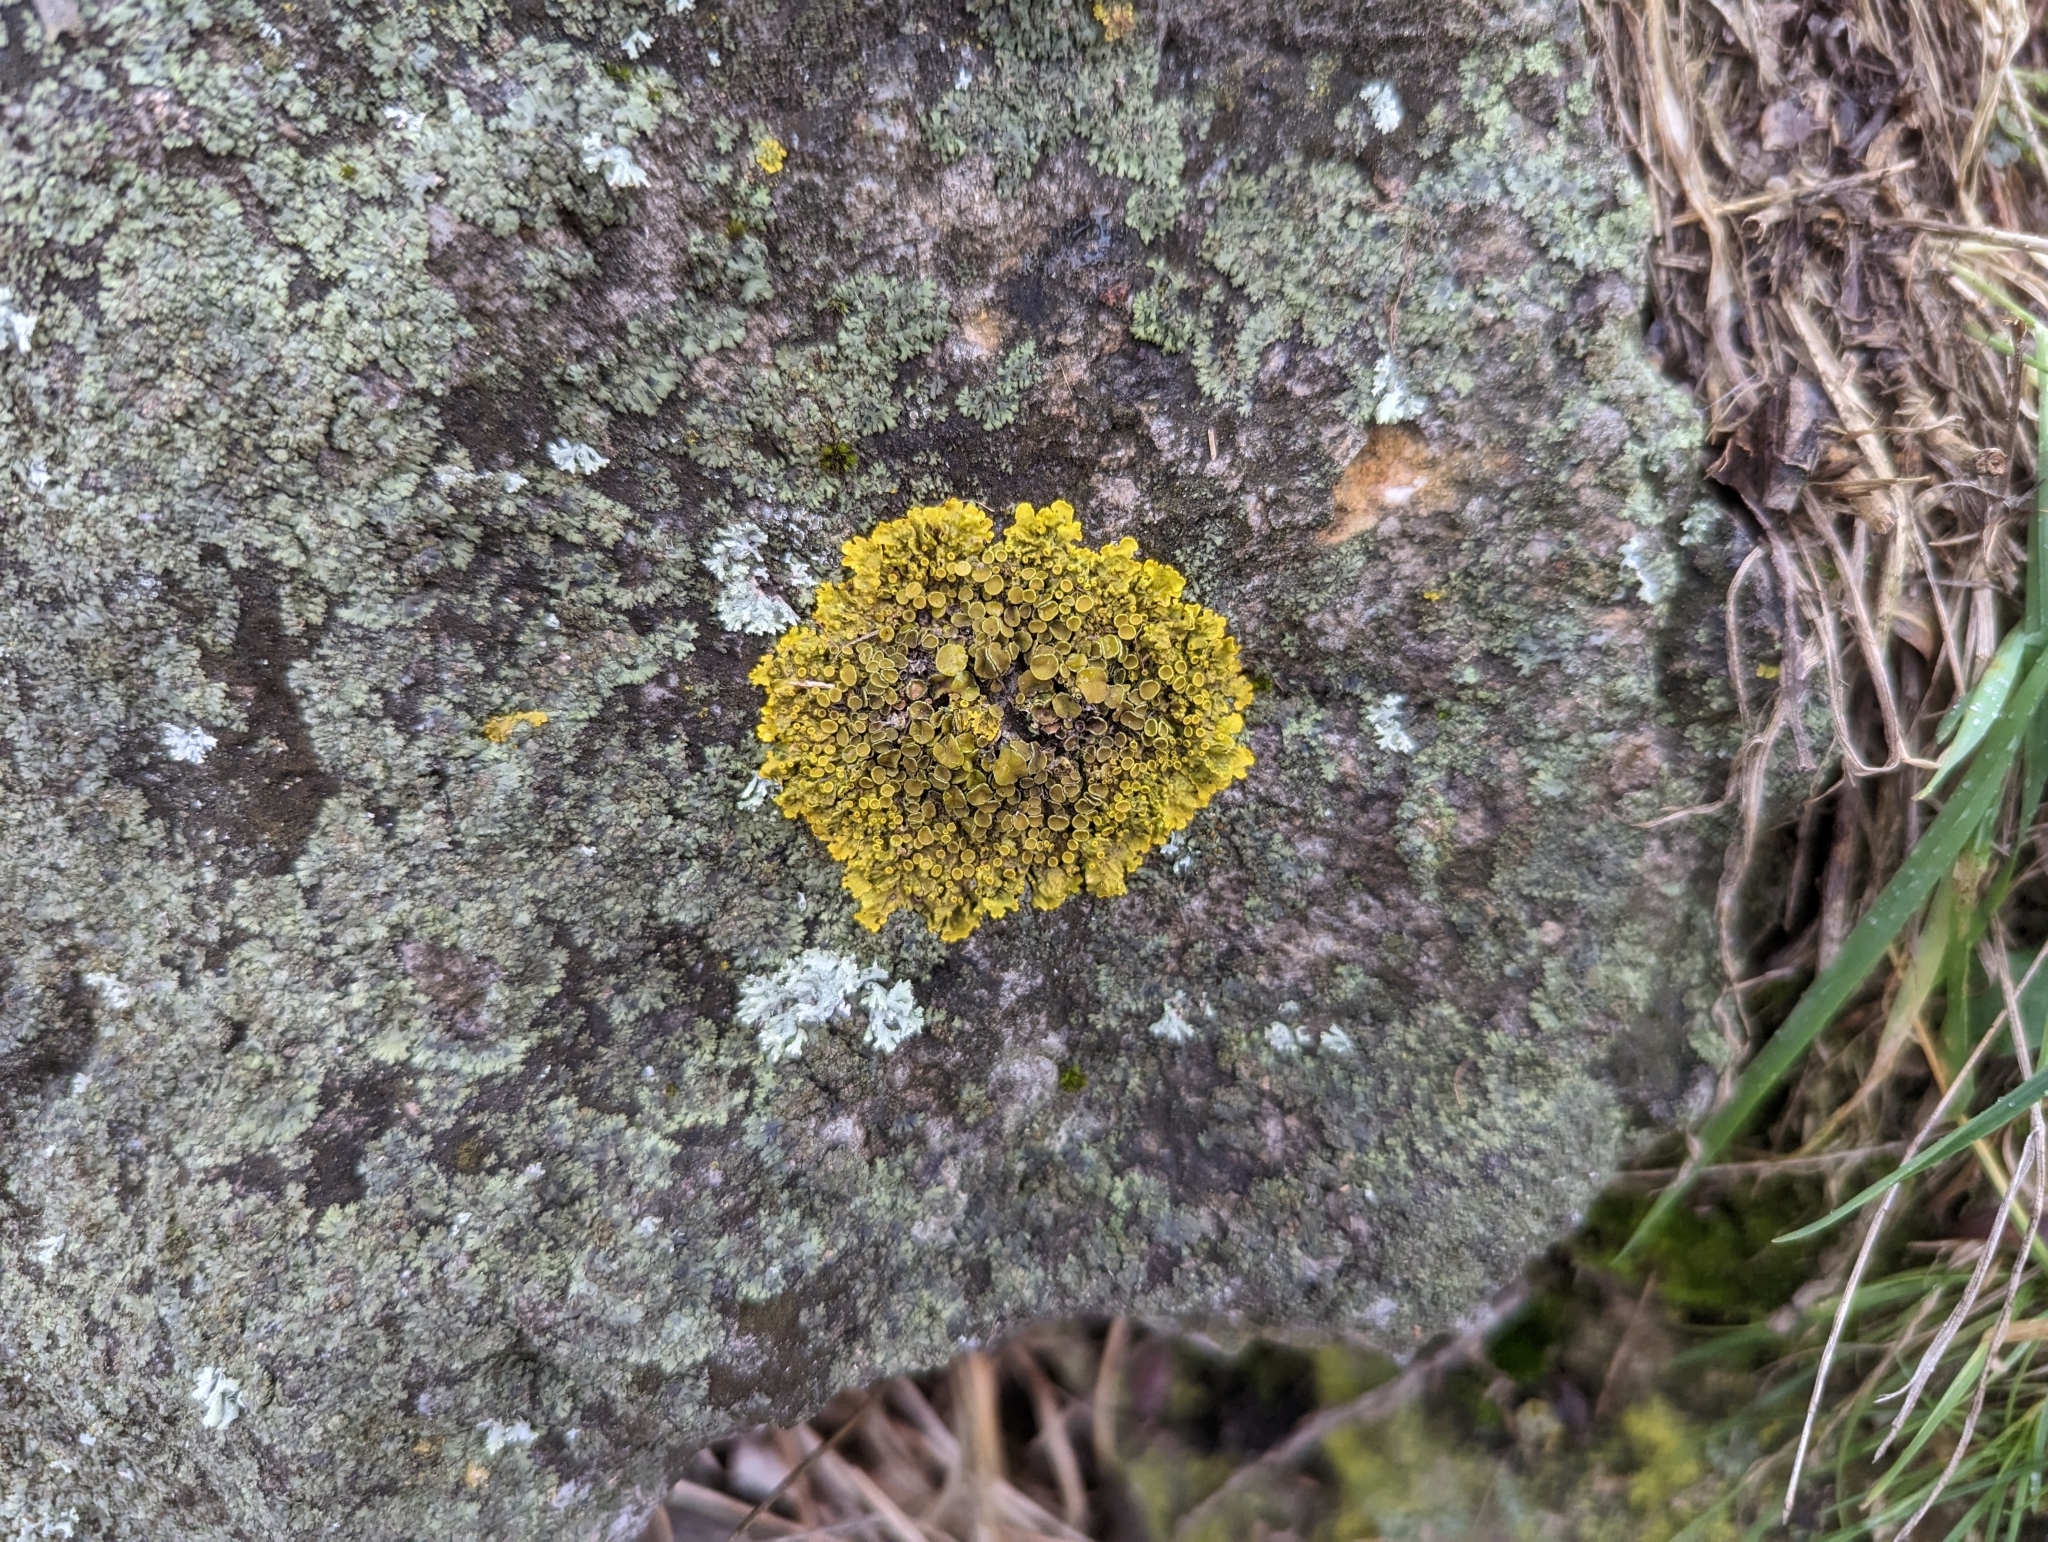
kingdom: Fungi
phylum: Ascomycota
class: Lecanoromycetes
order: Teloschistales
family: Teloschistaceae
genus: Xanthoria
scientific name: Xanthoria parietina
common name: Common orange lichen
